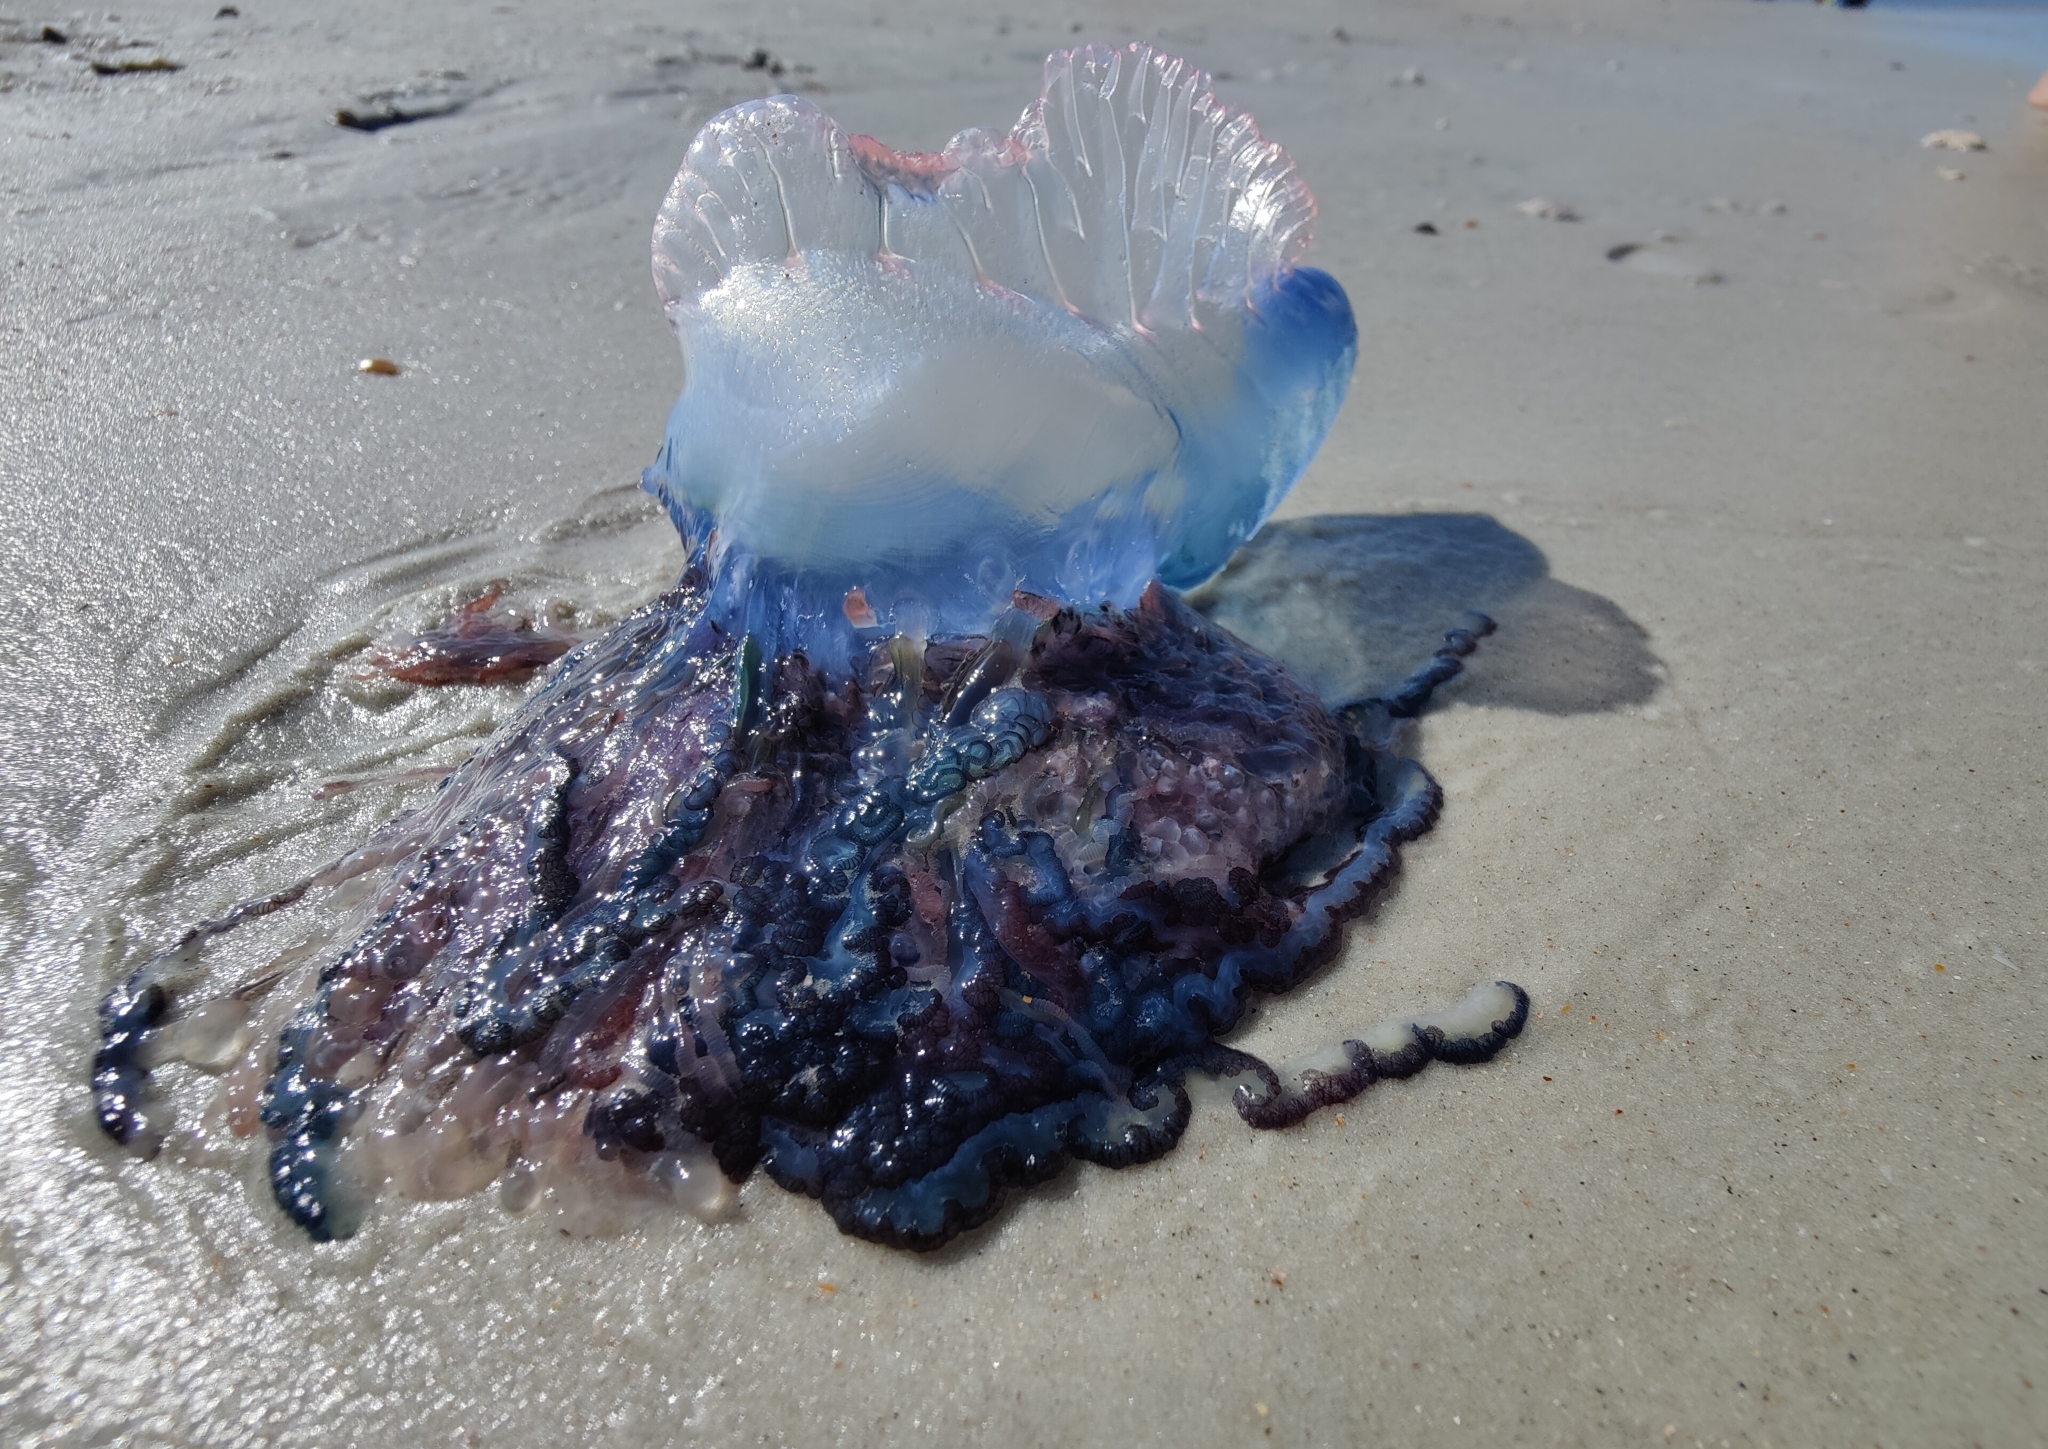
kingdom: Animalia
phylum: Cnidaria
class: Hydrozoa
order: Siphonophorae
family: Physaliidae
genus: Physalia
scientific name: Physalia physalis
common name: Portuguese man-of-war
